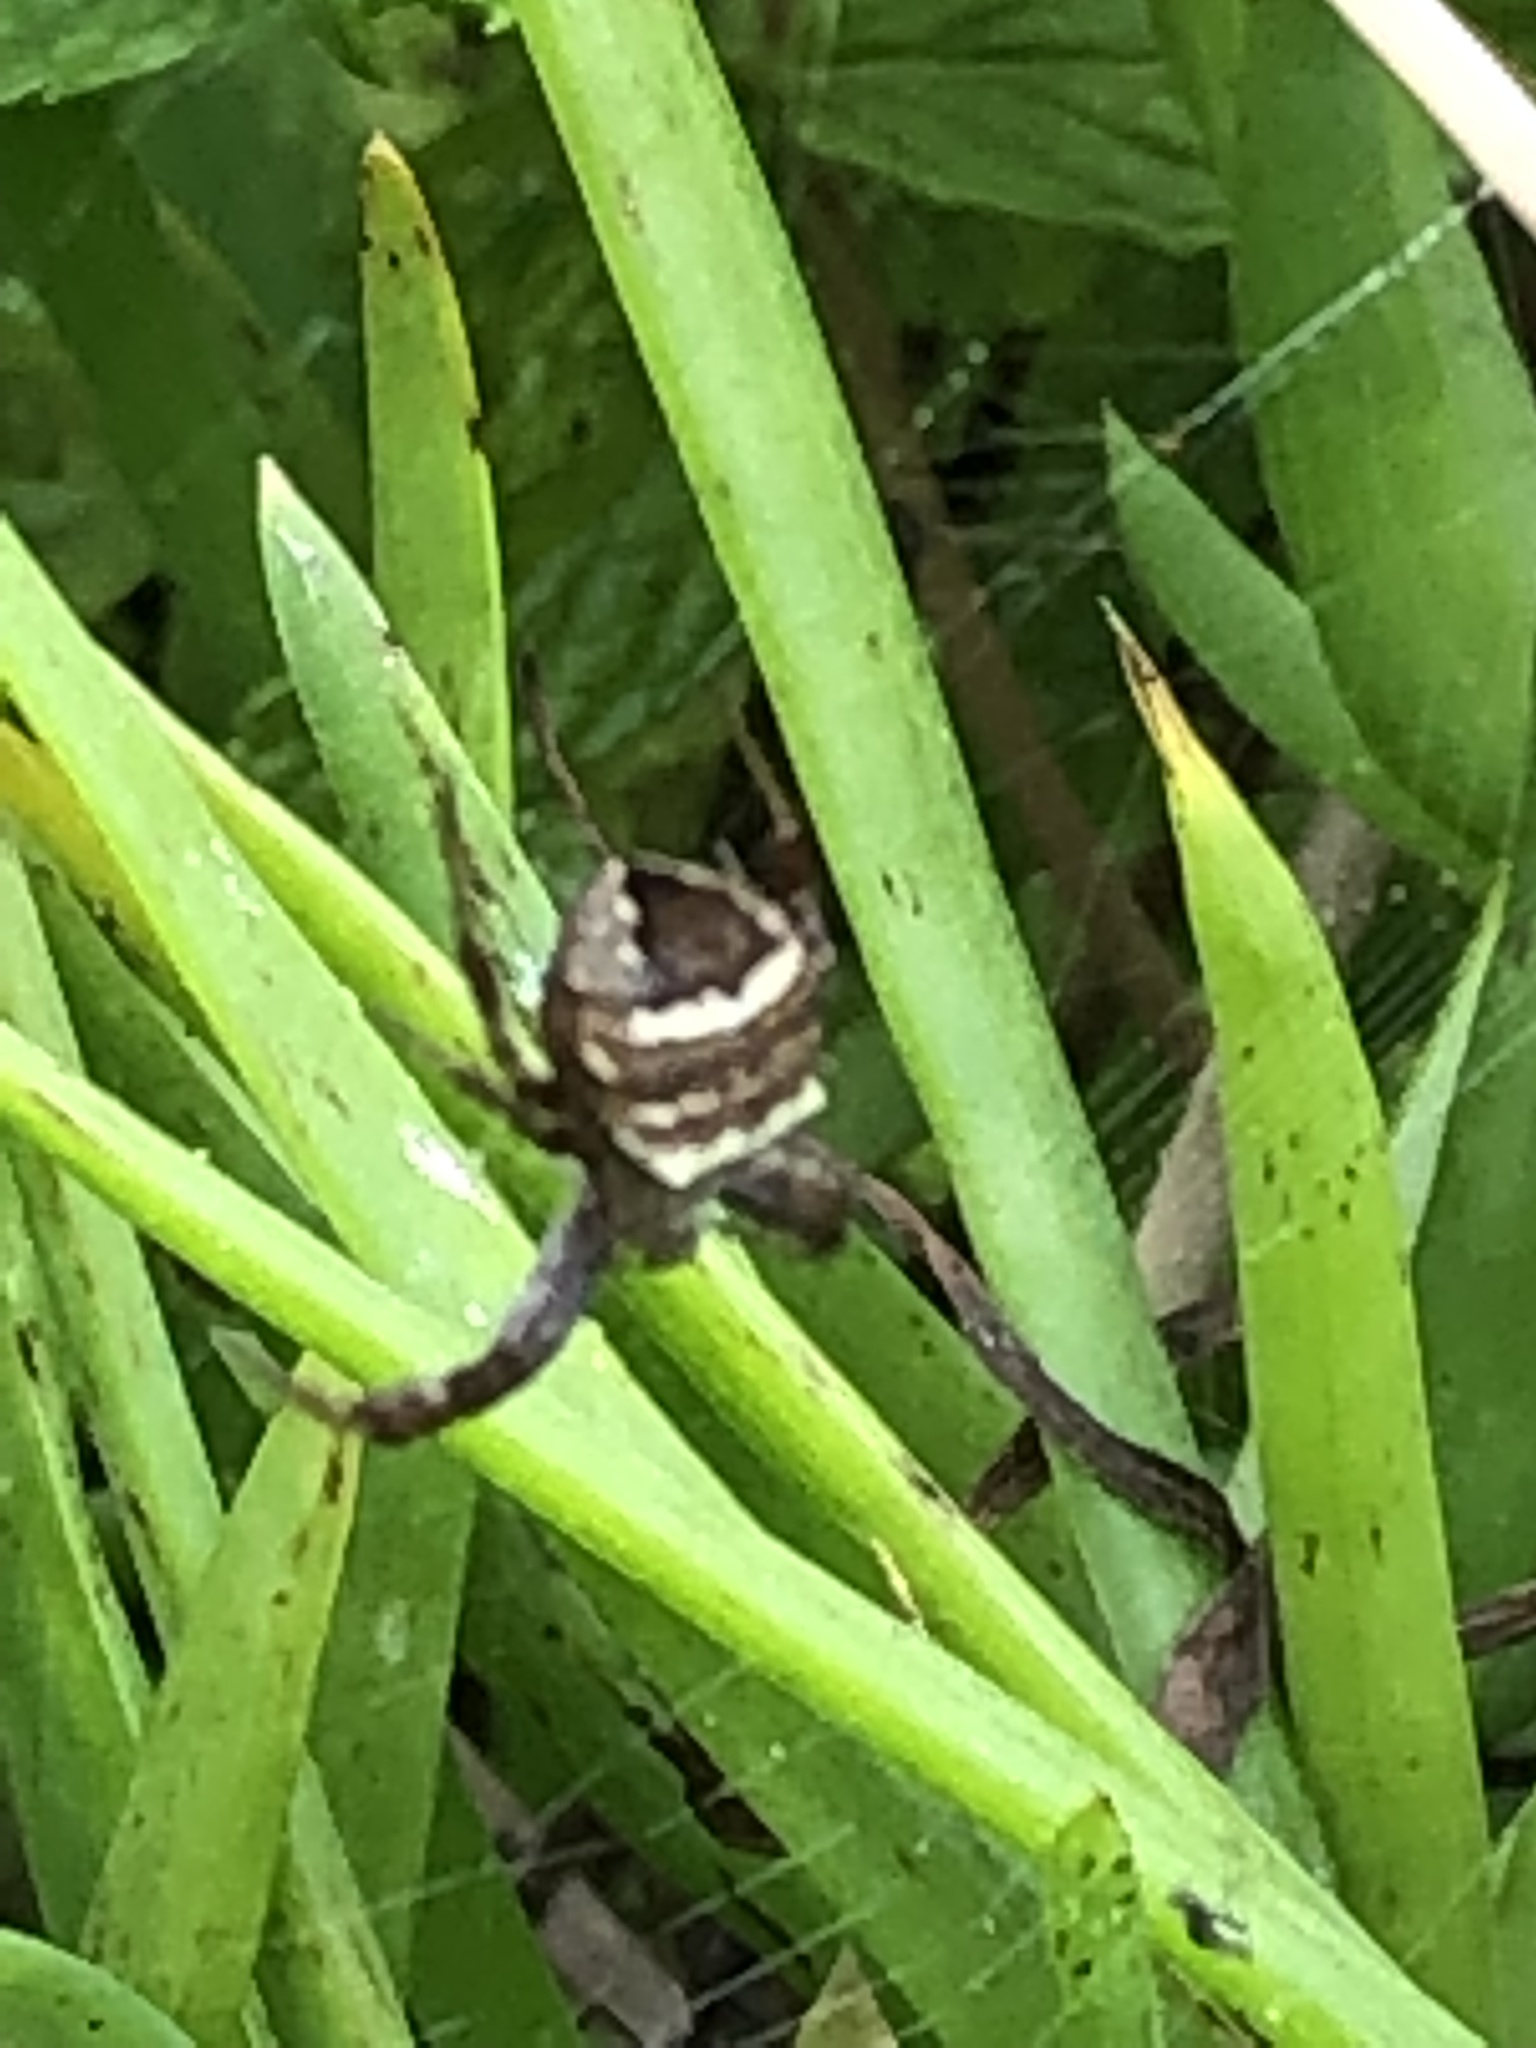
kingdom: Animalia
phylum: Arthropoda
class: Arachnida
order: Araneae
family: Araneidae
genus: Gea
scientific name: Gea infuscata
